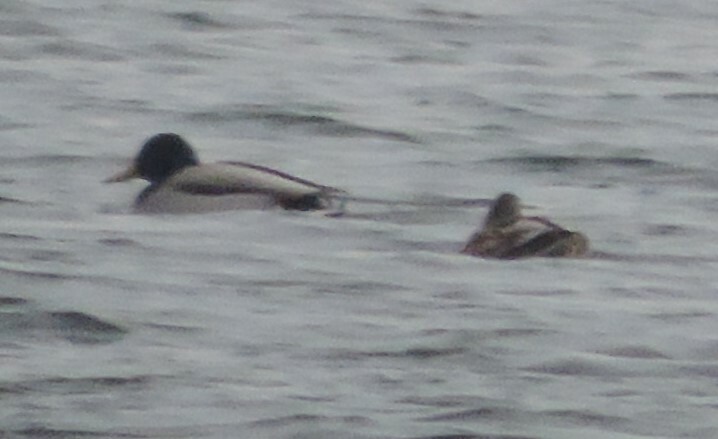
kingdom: Animalia
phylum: Chordata
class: Aves
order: Anseriformes
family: Anatidae
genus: Anas
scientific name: Anas platyrhynchos
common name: Mallard
